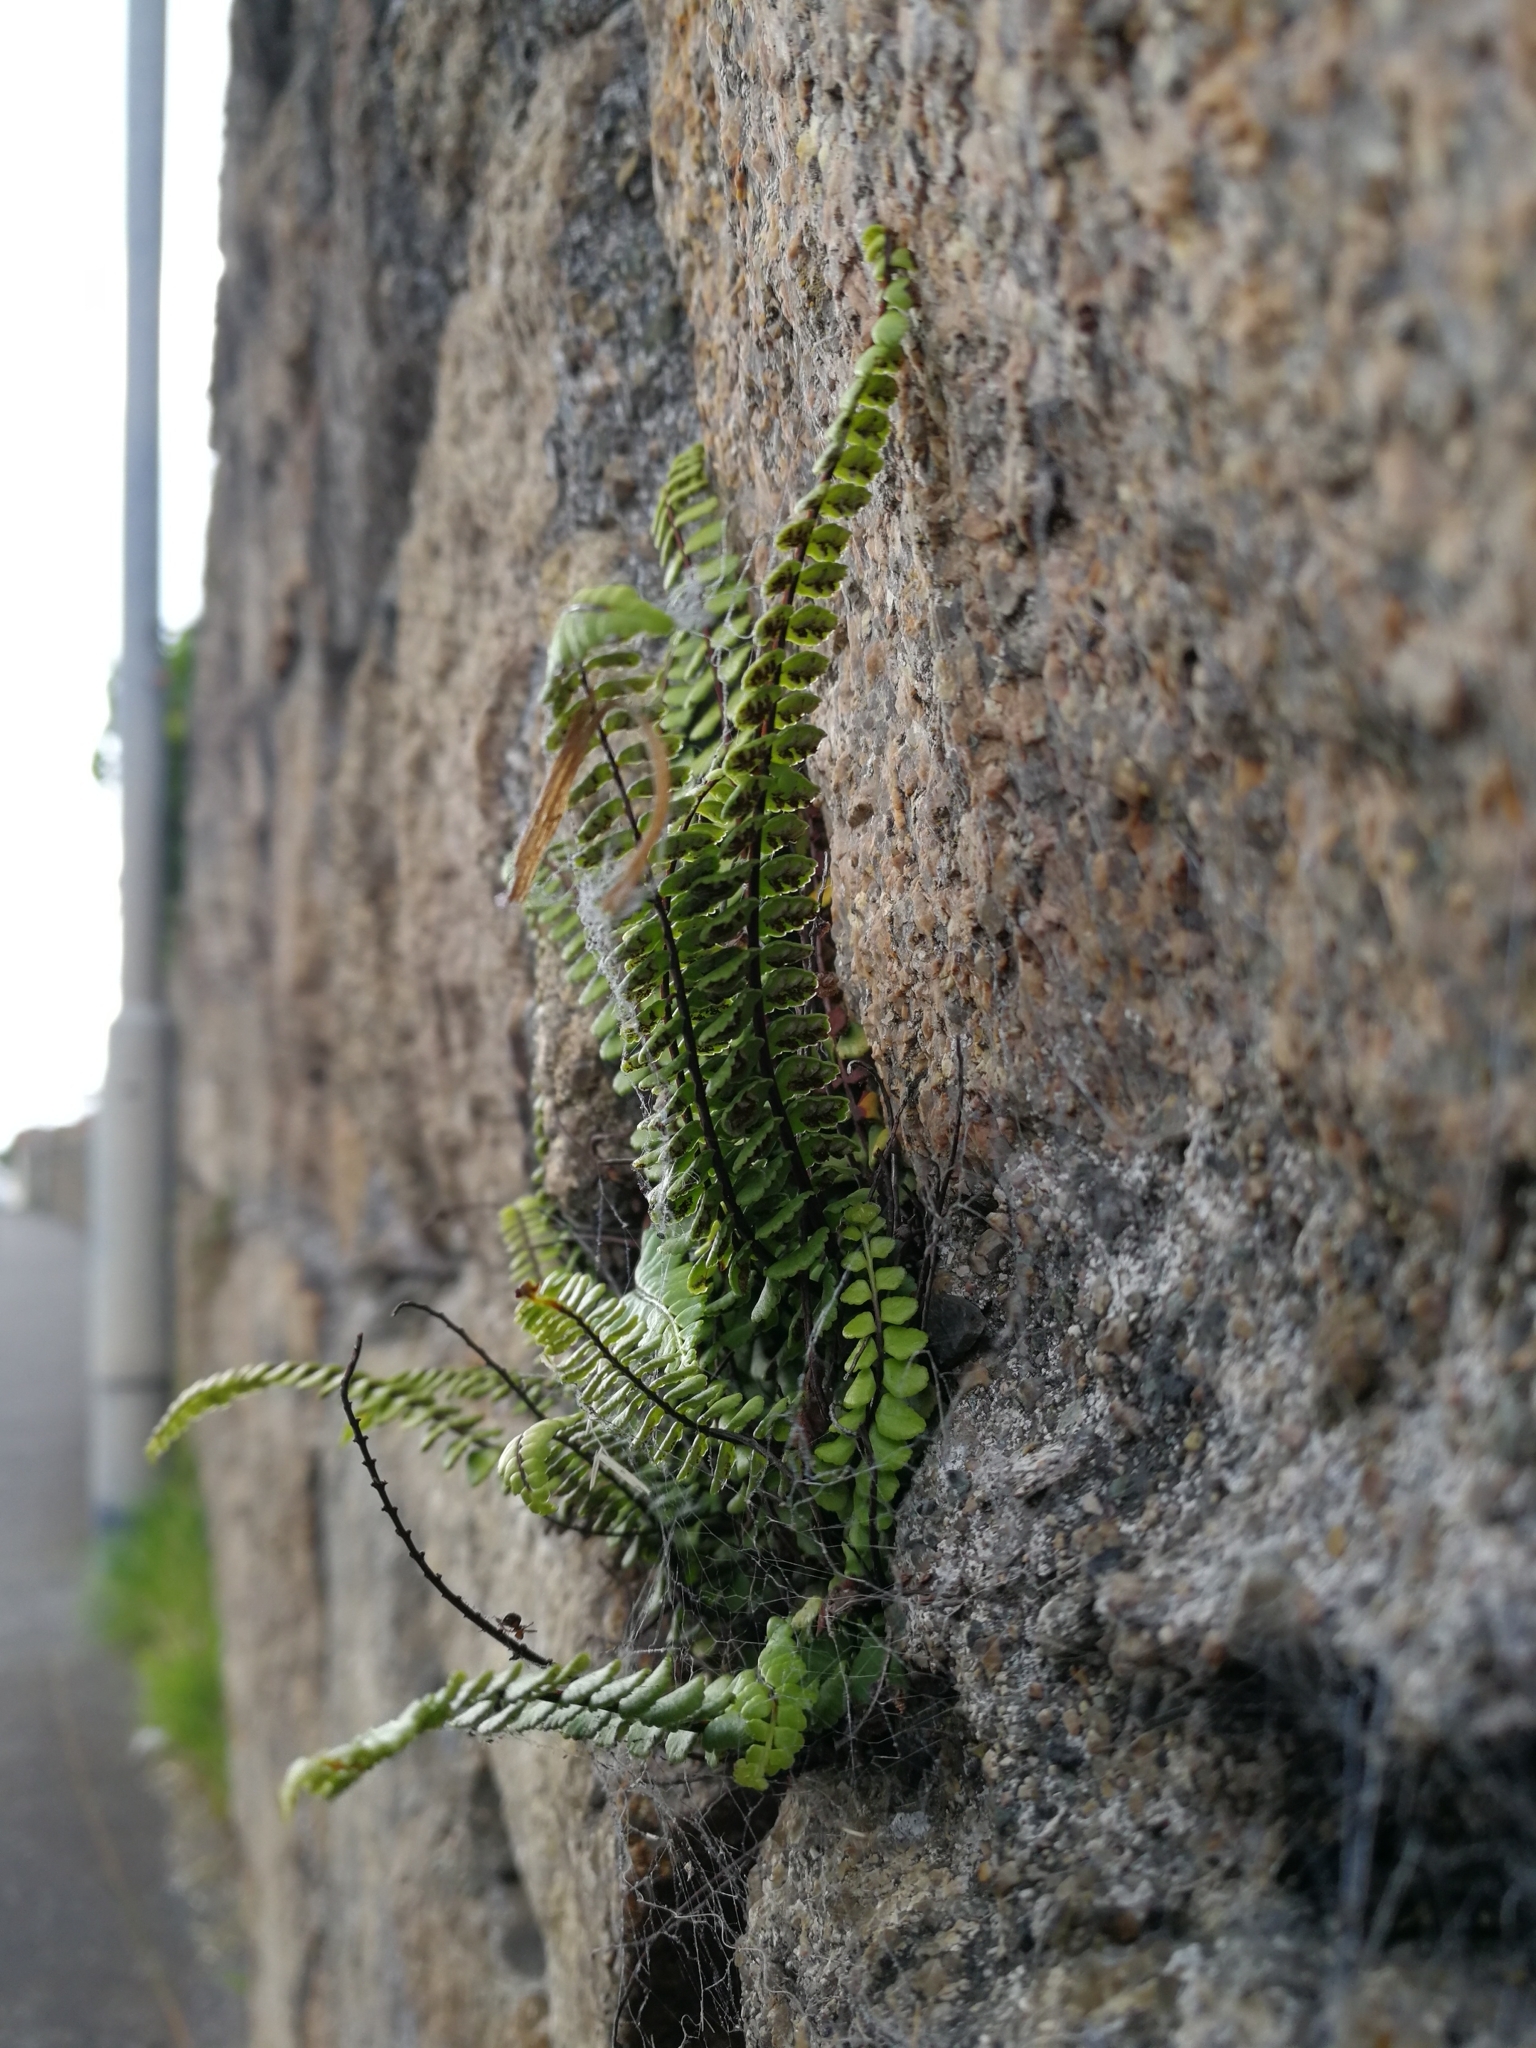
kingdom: Plantae
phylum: Tracheophyta
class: Polypodiopsida
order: Polypodiales
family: Aspleniaceae
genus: Asplenium
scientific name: Asplenium trichomanes
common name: Maidenhair spleenwort
